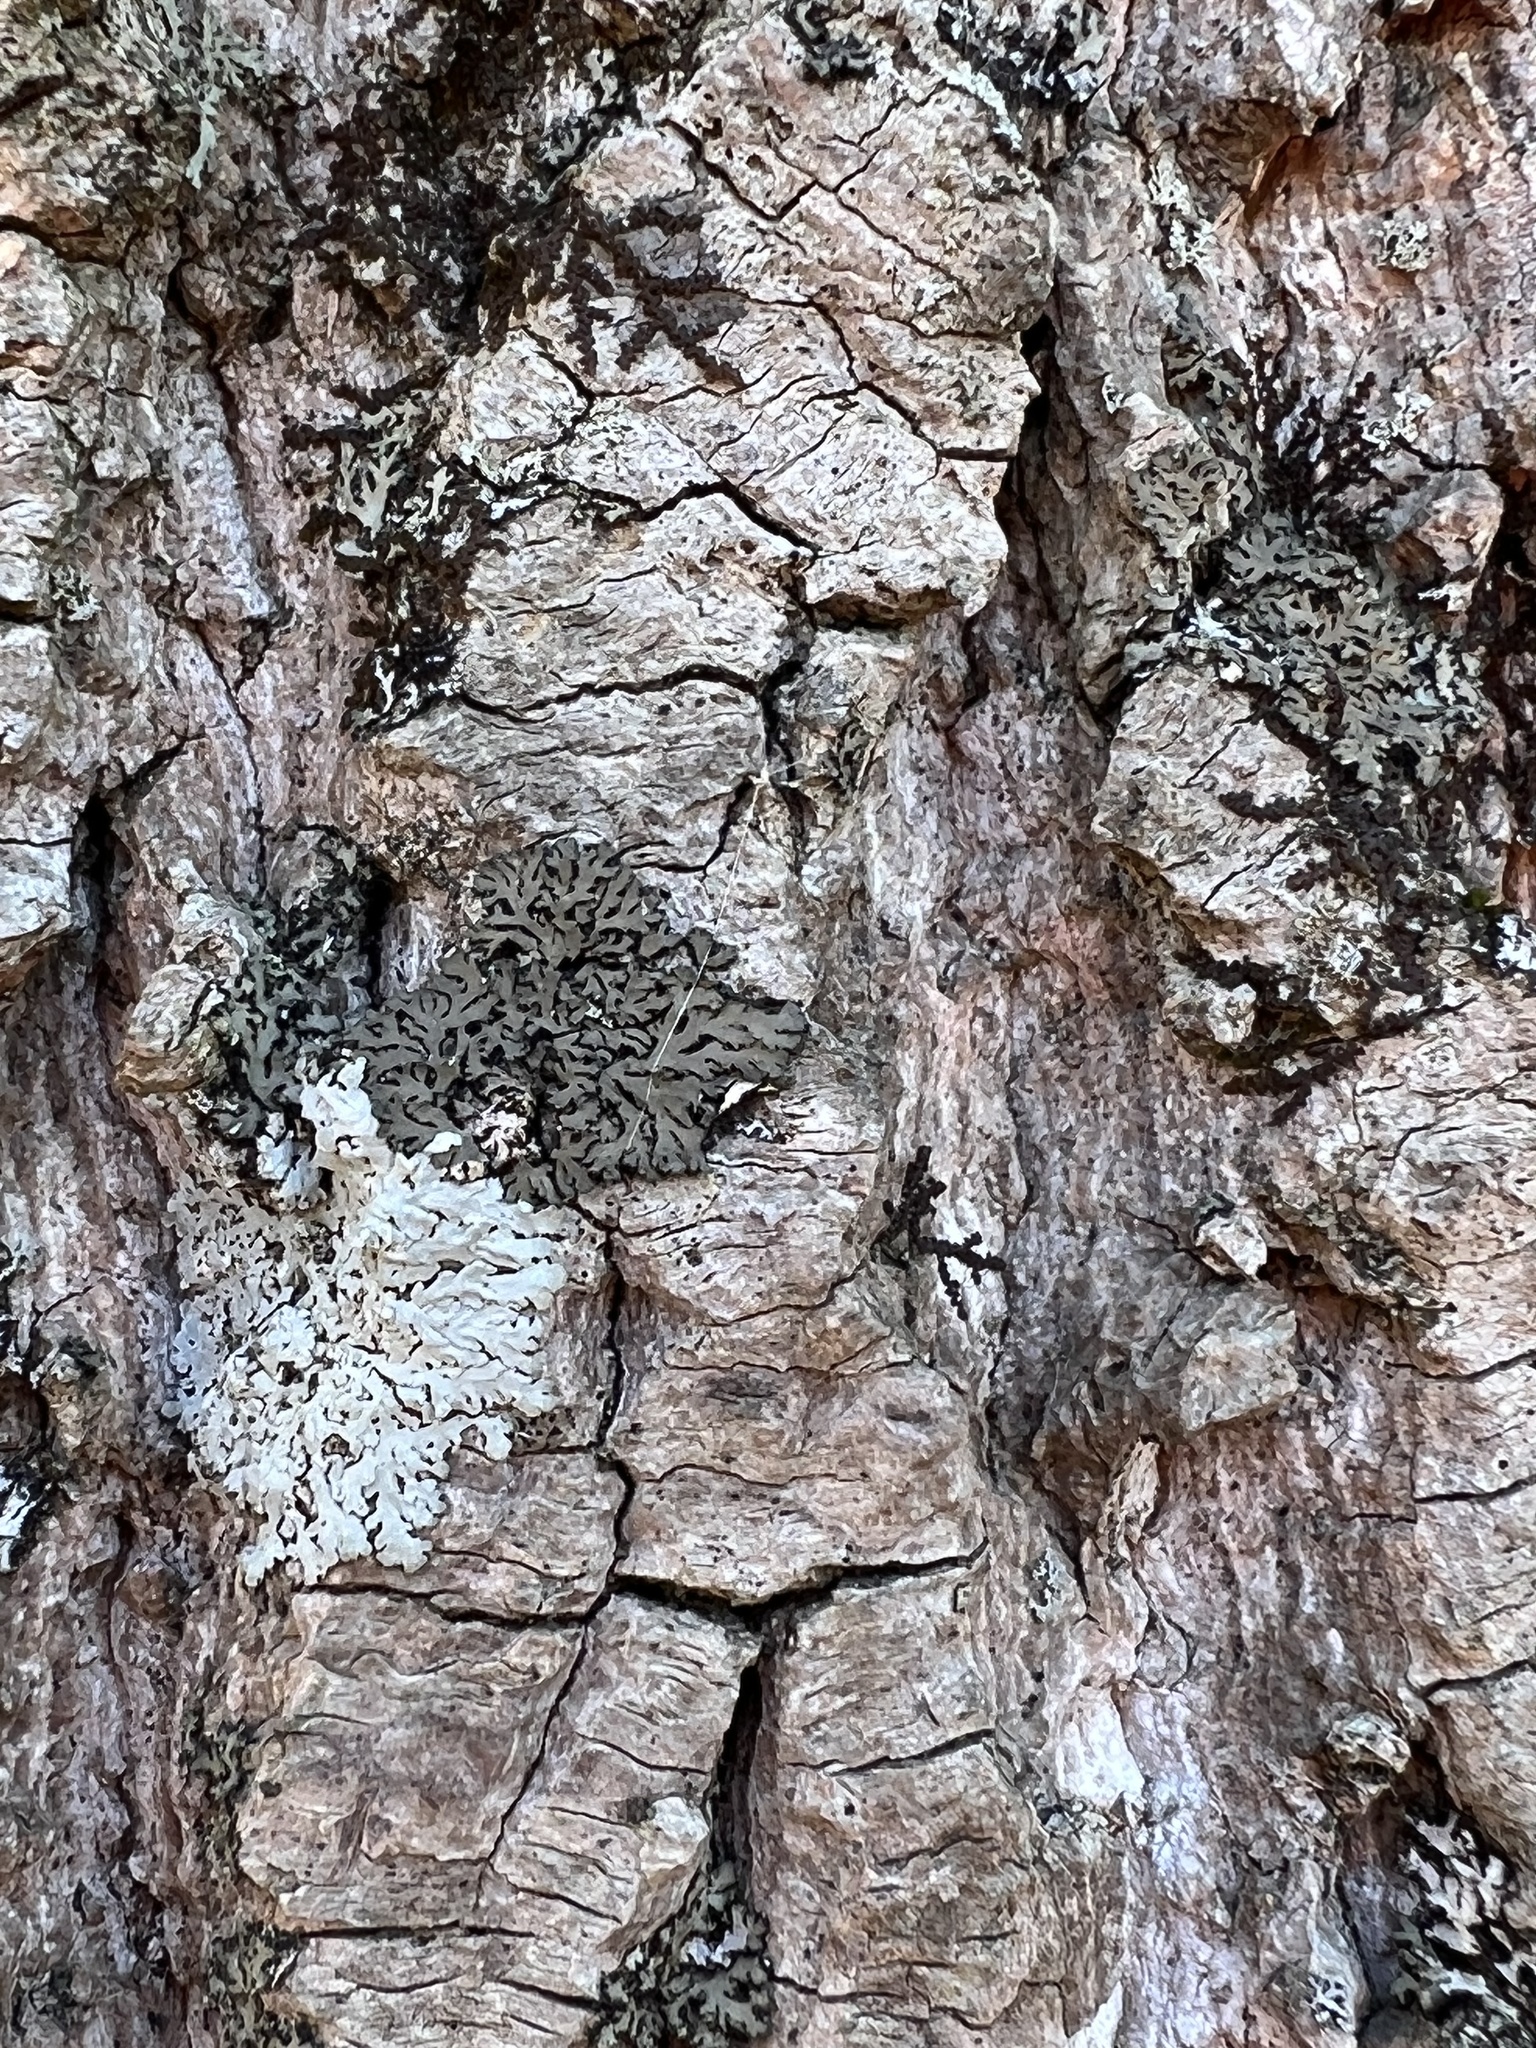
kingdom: Fungi
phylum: Ascomycota
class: Lecanoromycetes
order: Caliciales
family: Physciaceae
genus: Phaeophyscia
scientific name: Phaeophyscia rubropulchra
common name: Orange-cored shadow lichen
